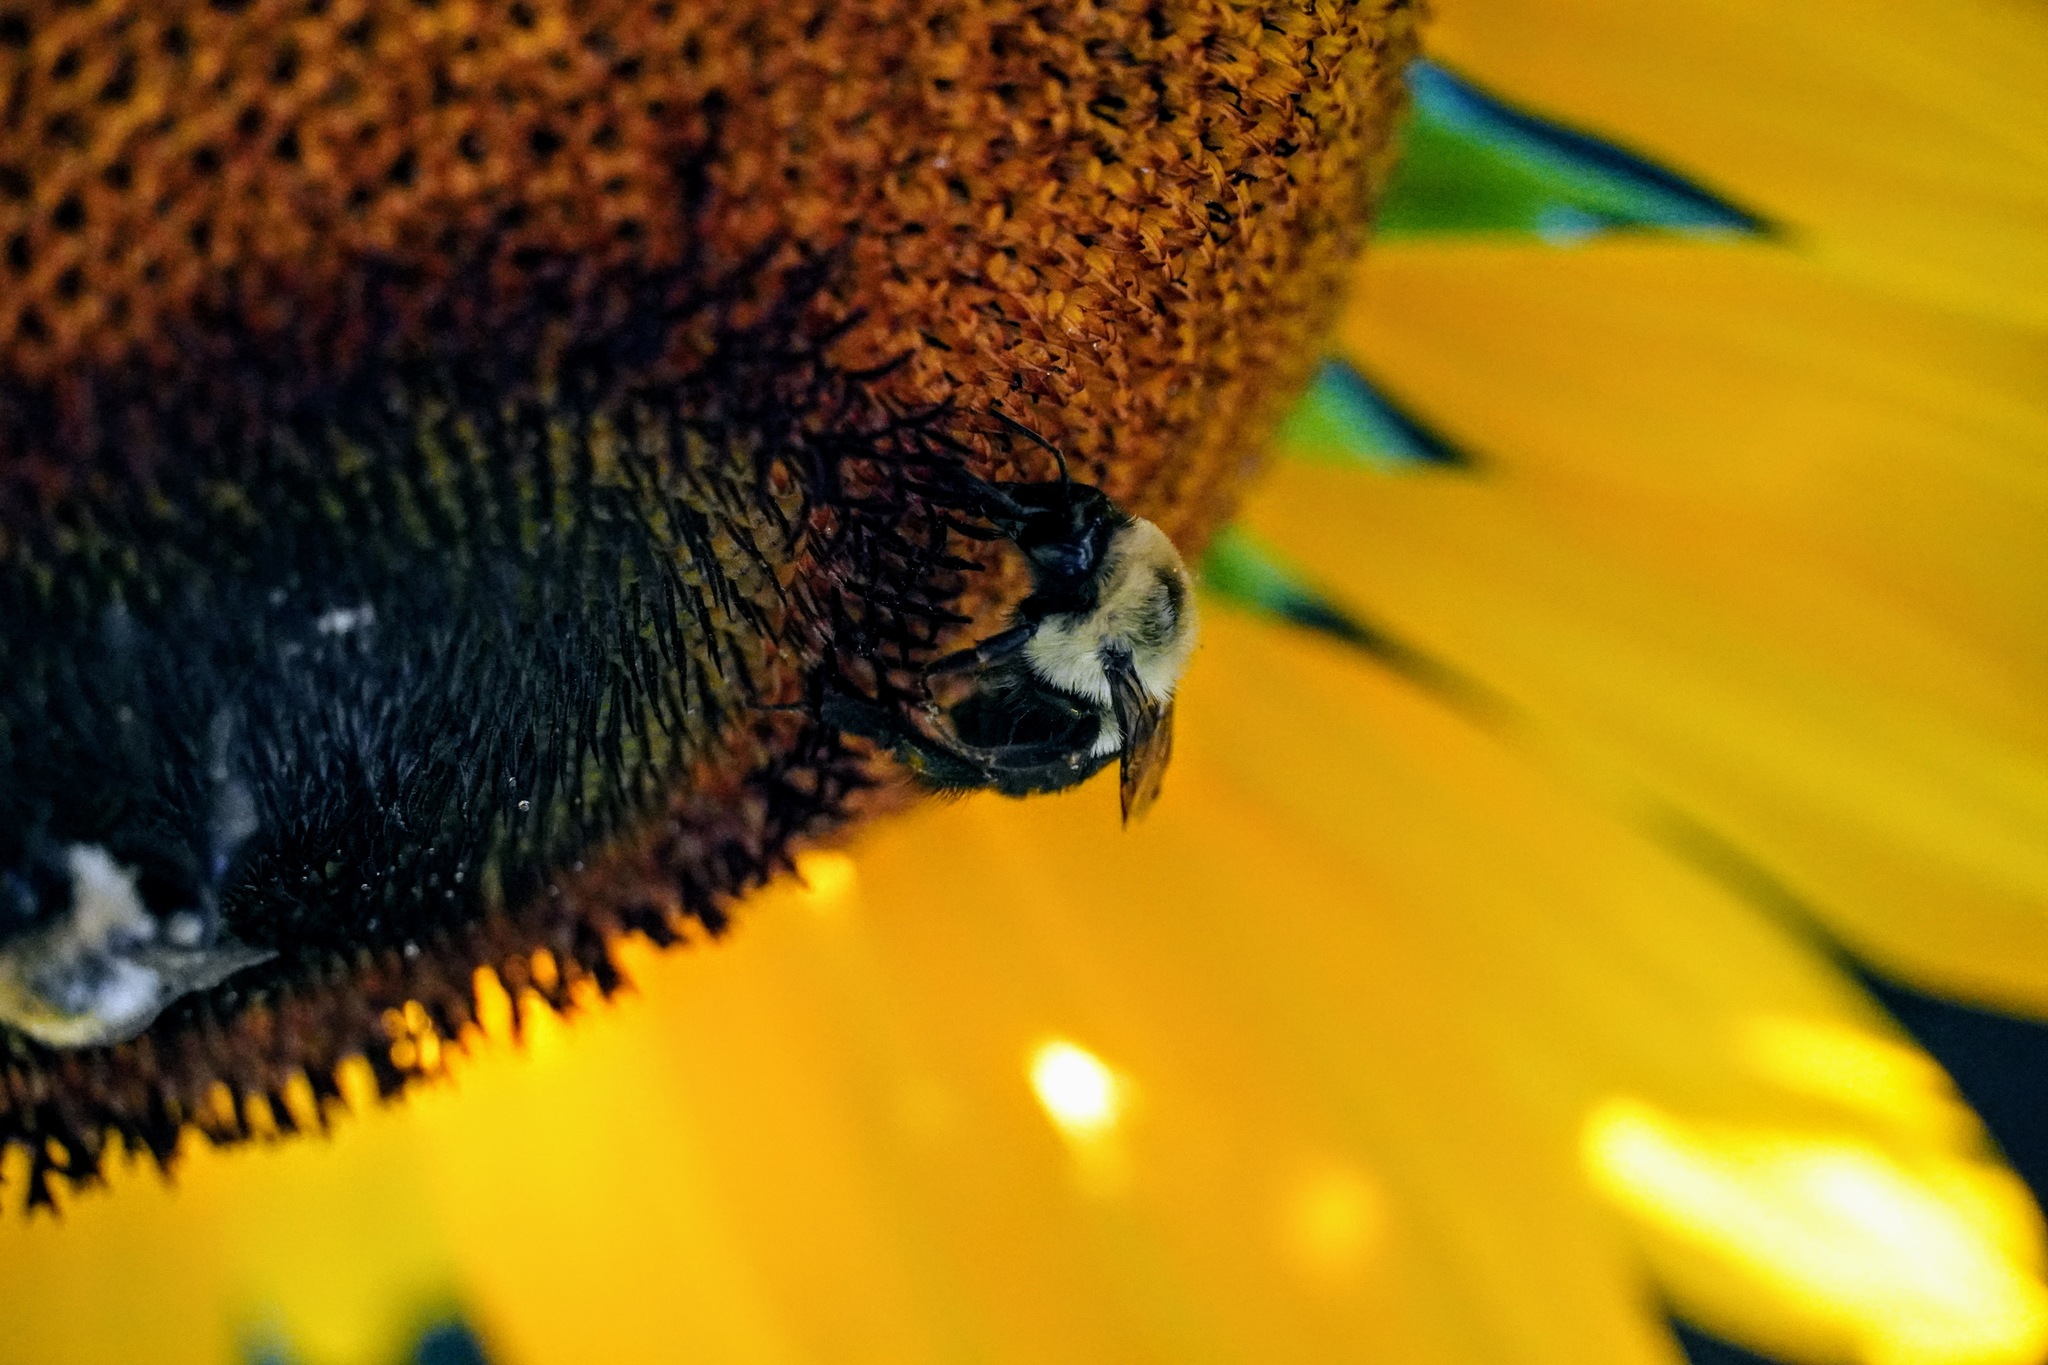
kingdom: Animalia
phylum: Arthropoda
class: Insecta
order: Hymenoptera
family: Apidae
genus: Bombus
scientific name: Bombus impatiens
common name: Common eastern bumble bee
